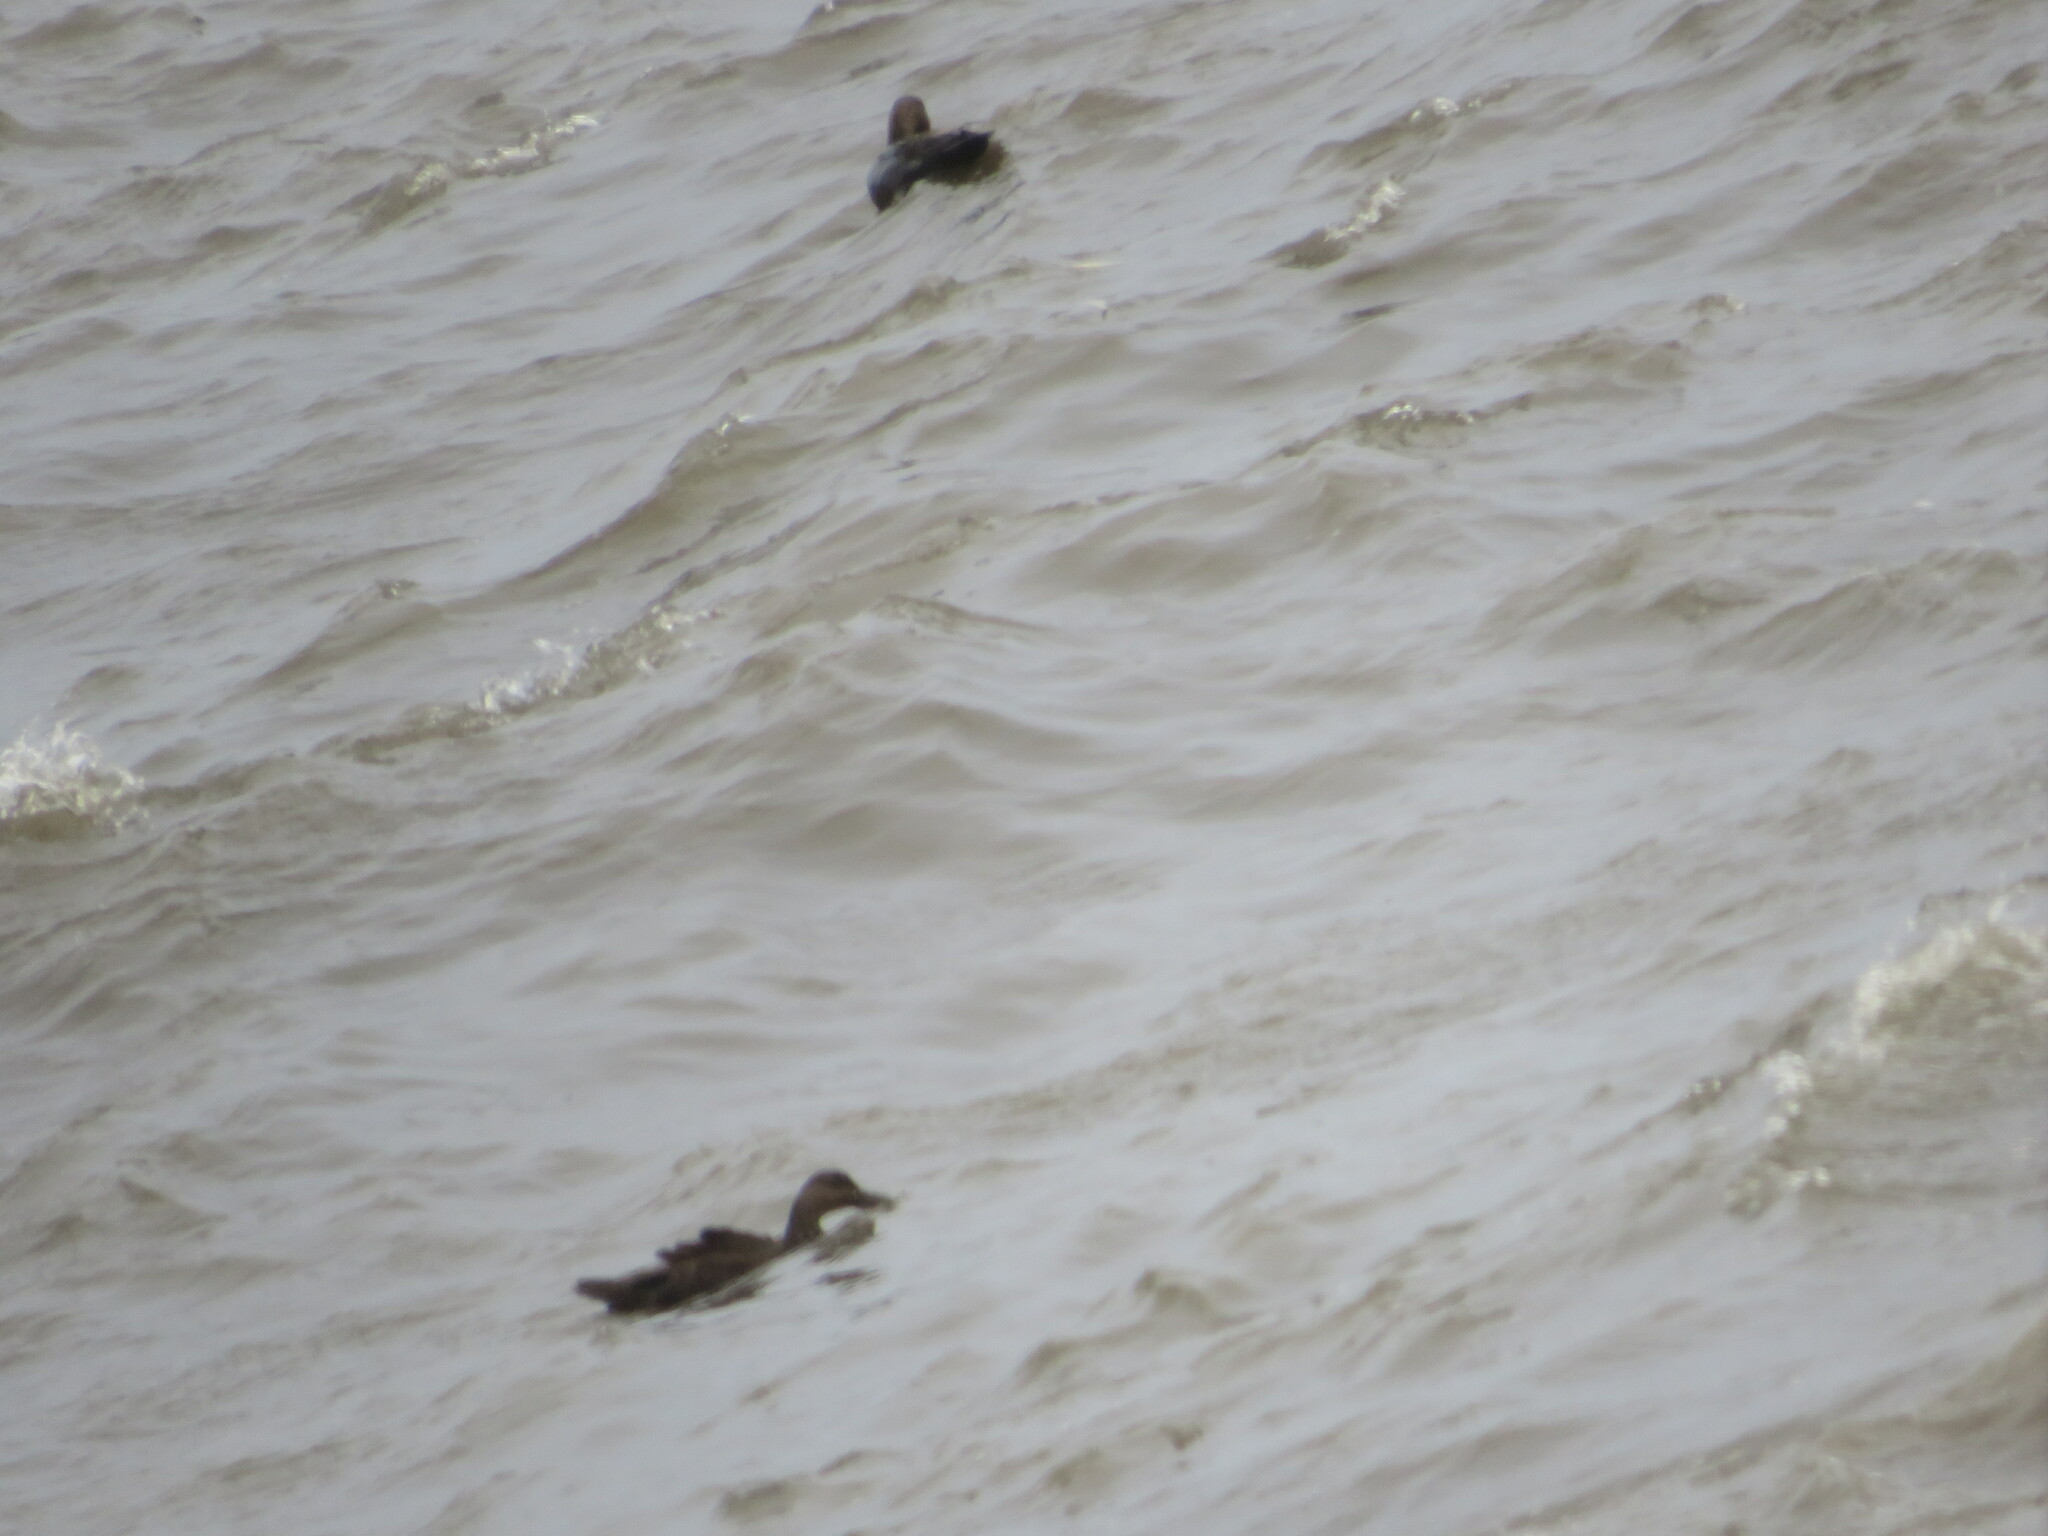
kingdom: Animalia
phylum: Chordata
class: Aves
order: Anseriformes
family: Anatidae
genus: Anas
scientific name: Anas rubripes
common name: American black duck
